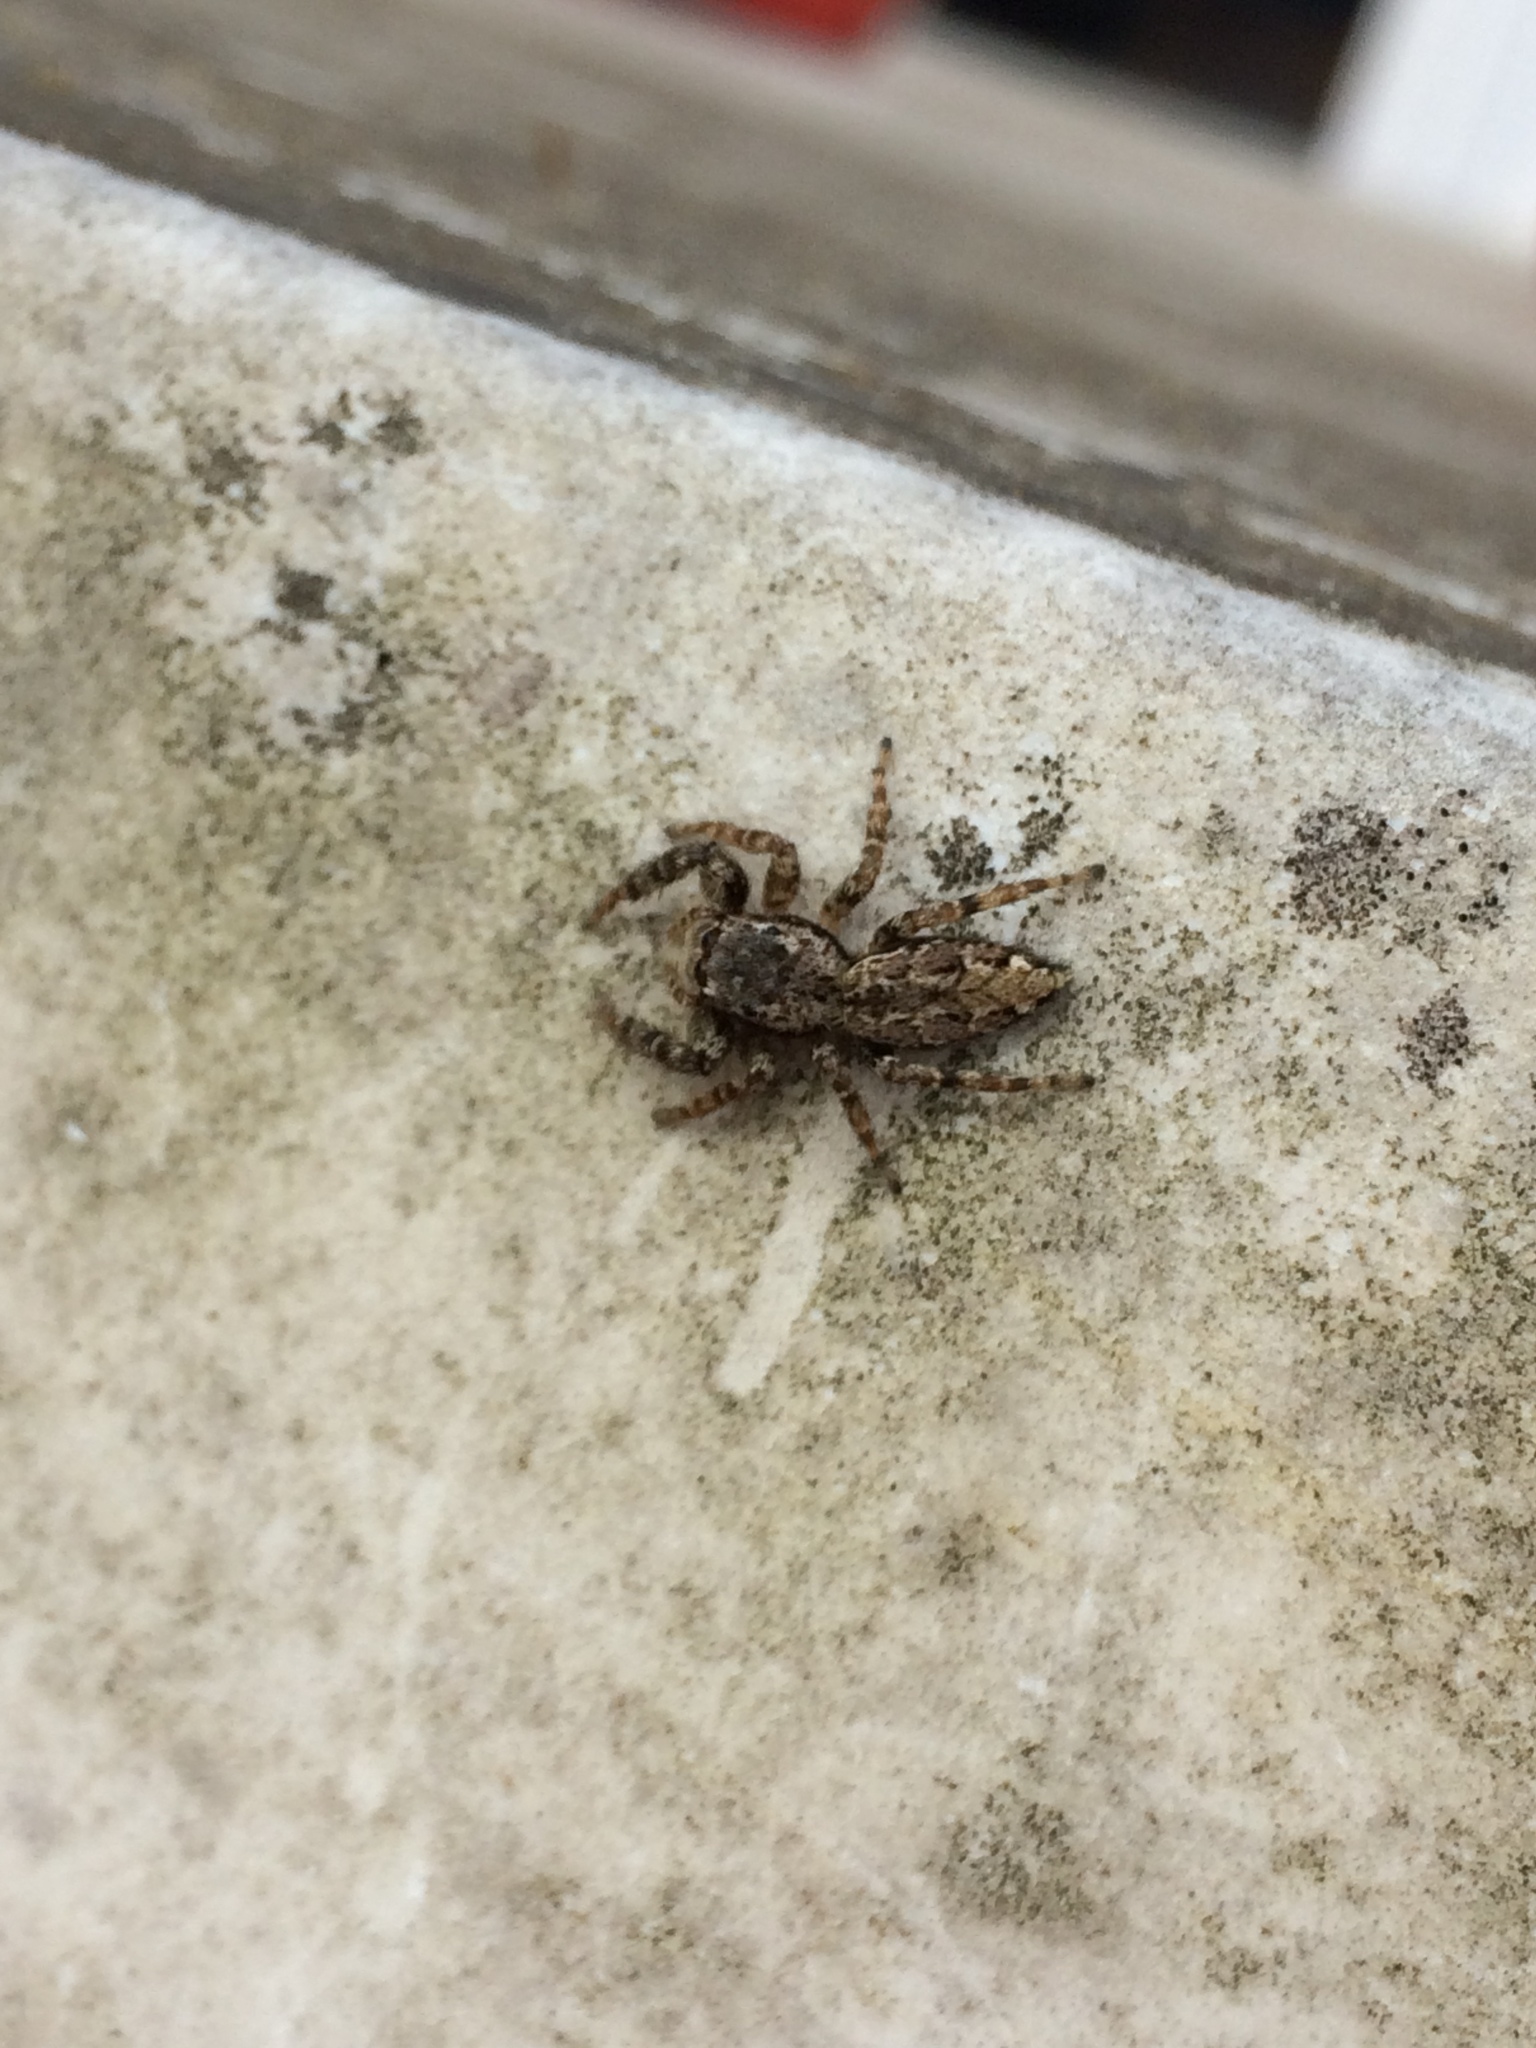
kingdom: Animalia
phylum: Arthropoda
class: Arachnida
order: Araneae
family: Salticidae
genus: Marpissa
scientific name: Marpissa muscosa
